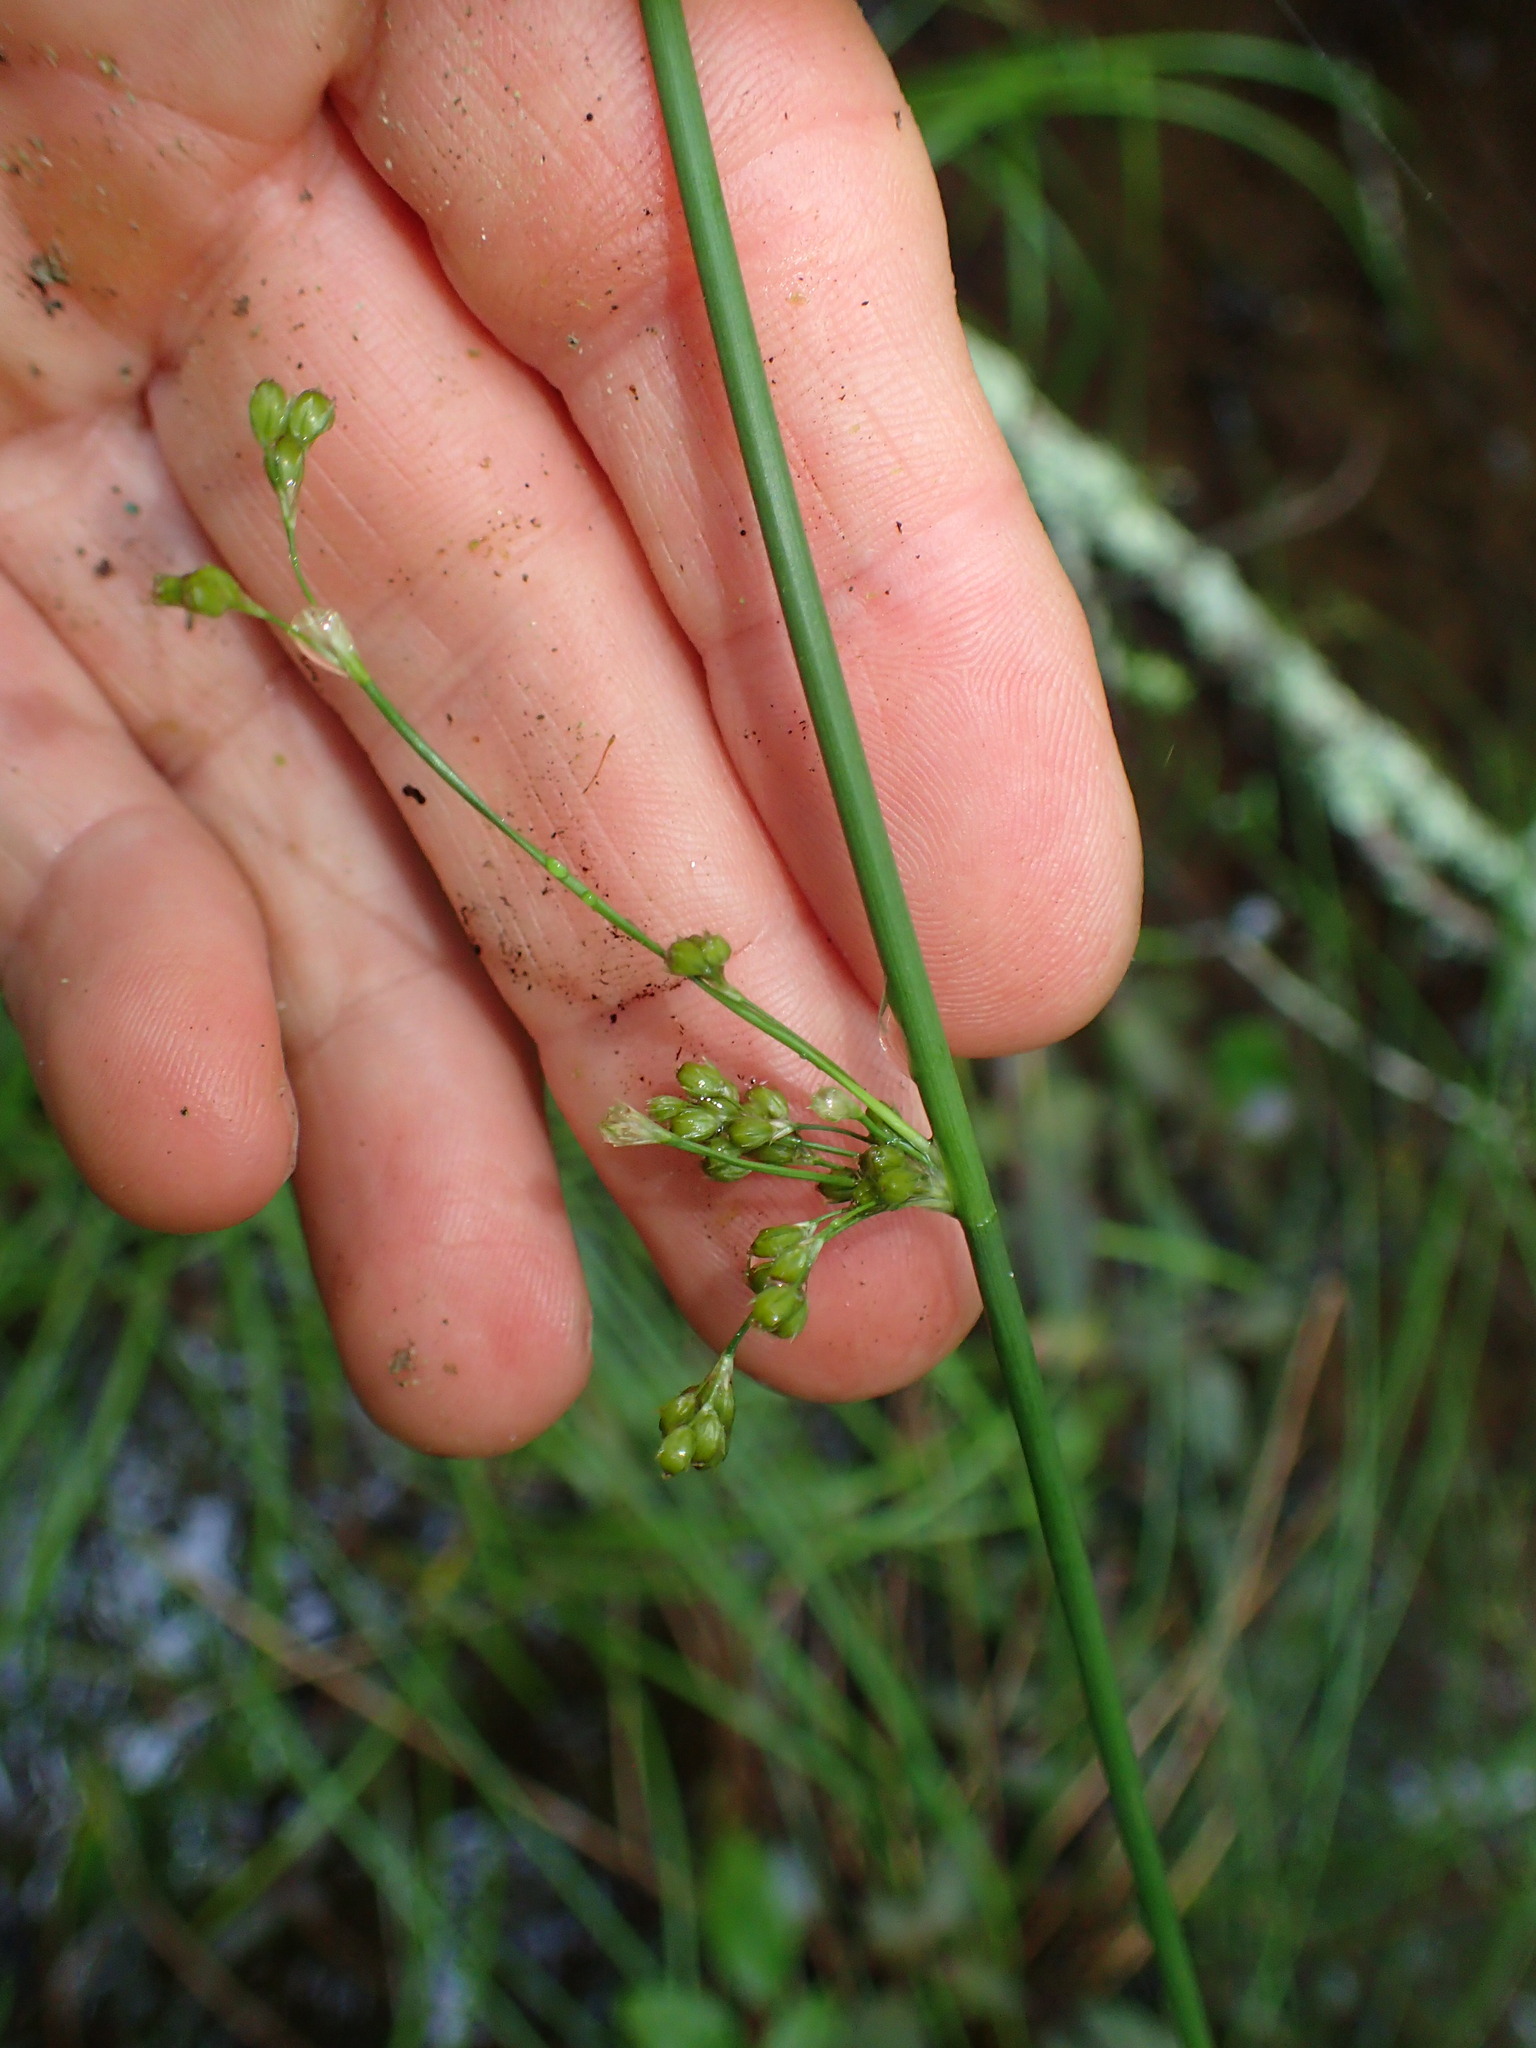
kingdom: Plantae
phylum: Tracheophyta
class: Liliopsida
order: Poales
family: Juncaceae
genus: Juncus
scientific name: Juncus effusus
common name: Soft rush
